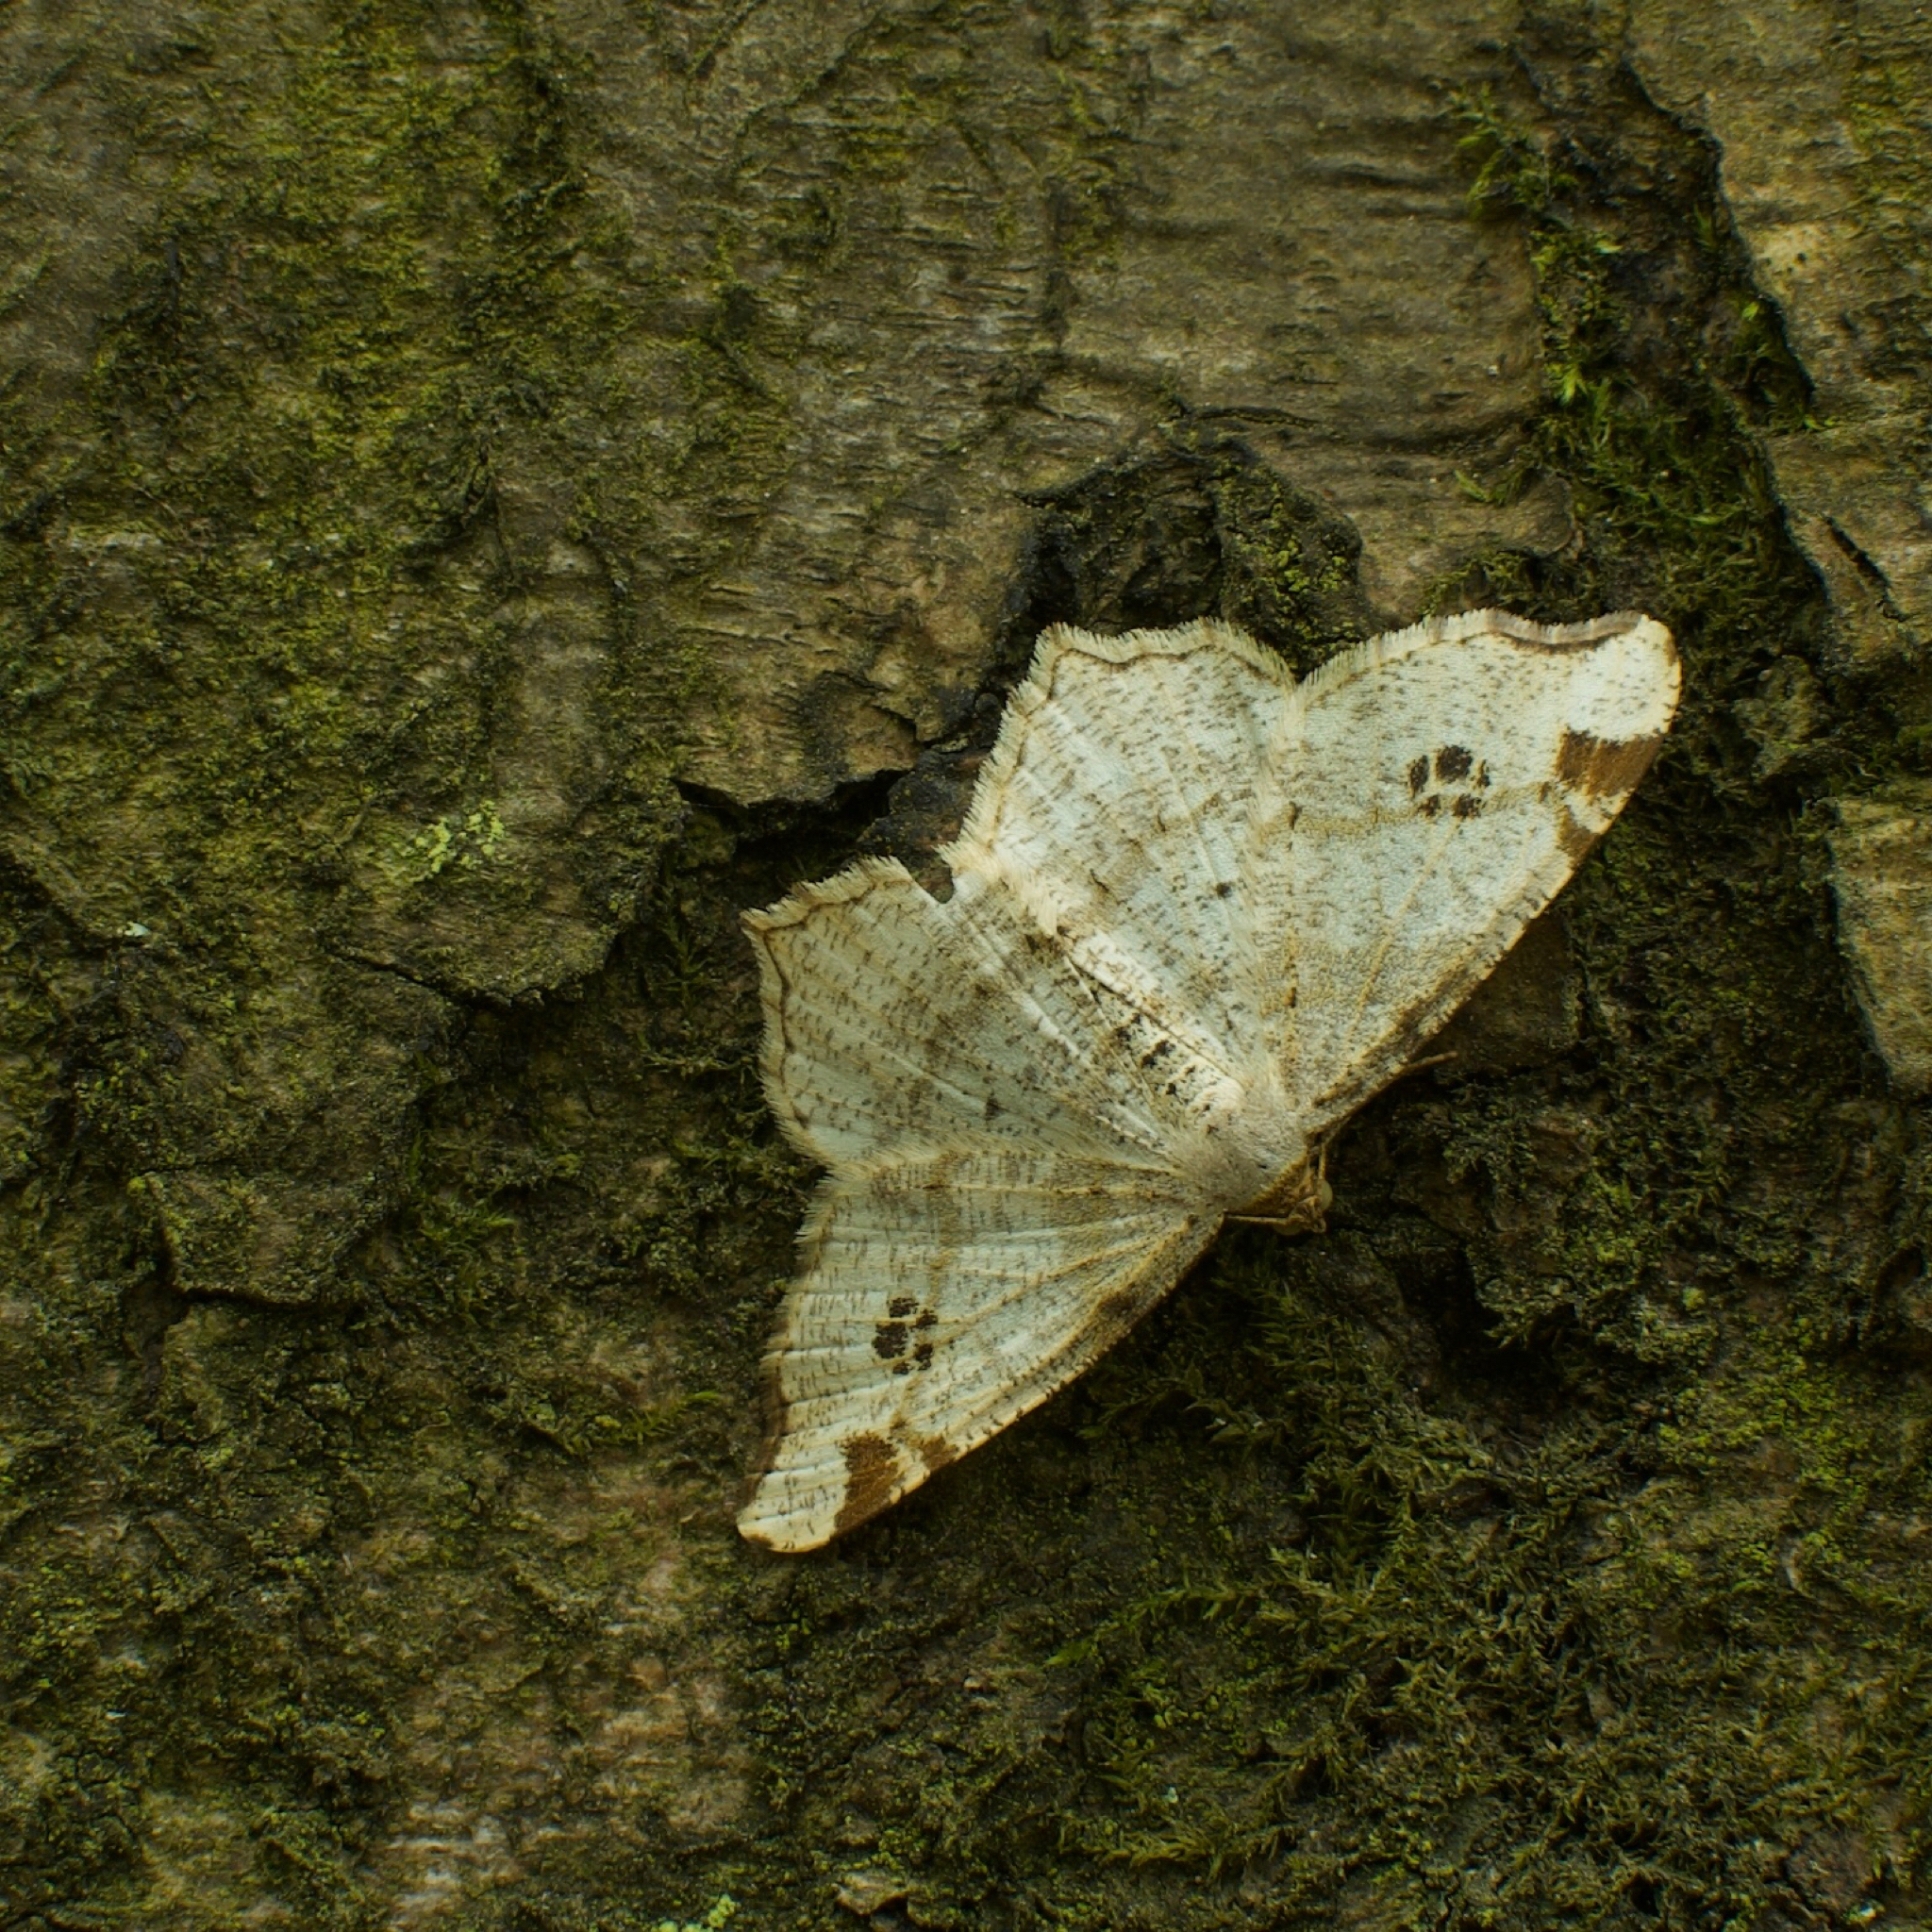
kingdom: Animalia
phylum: Arthropoda
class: Insecta
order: Lepidoptera
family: Geometridae
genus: Macaria
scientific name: Macaria notata
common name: Peacock moth
